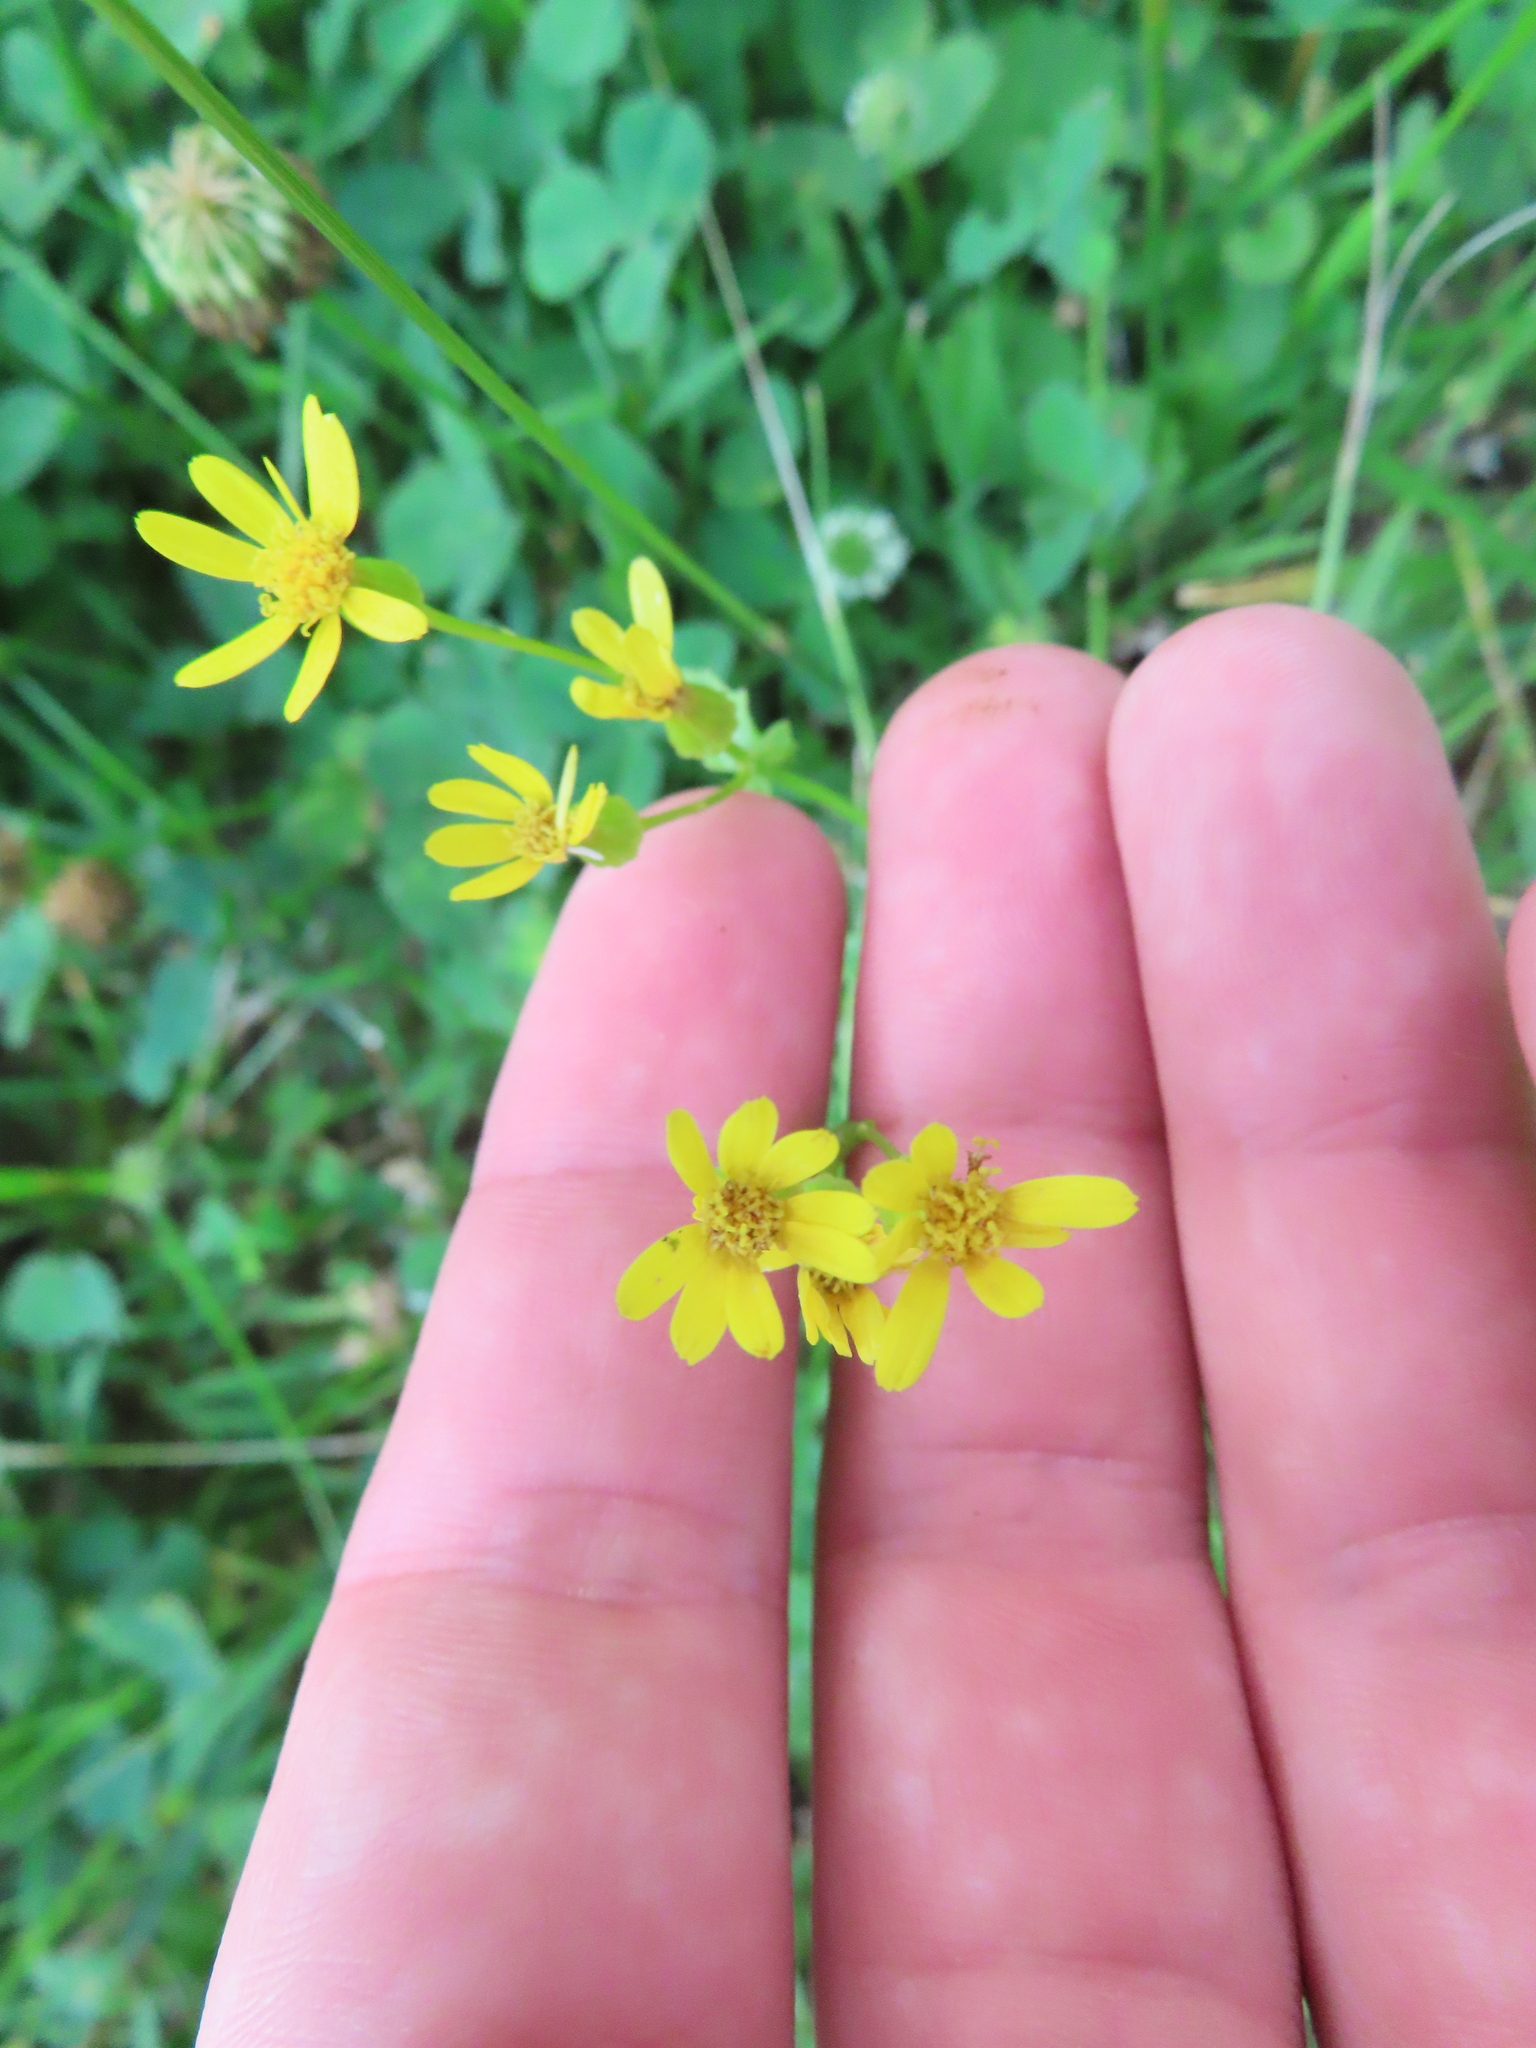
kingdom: Plantae
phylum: Tracheophyta
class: Magnoliopsida
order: Asterales
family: Asteraceae
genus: Packera
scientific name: Packera glabella
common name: Butterweed
